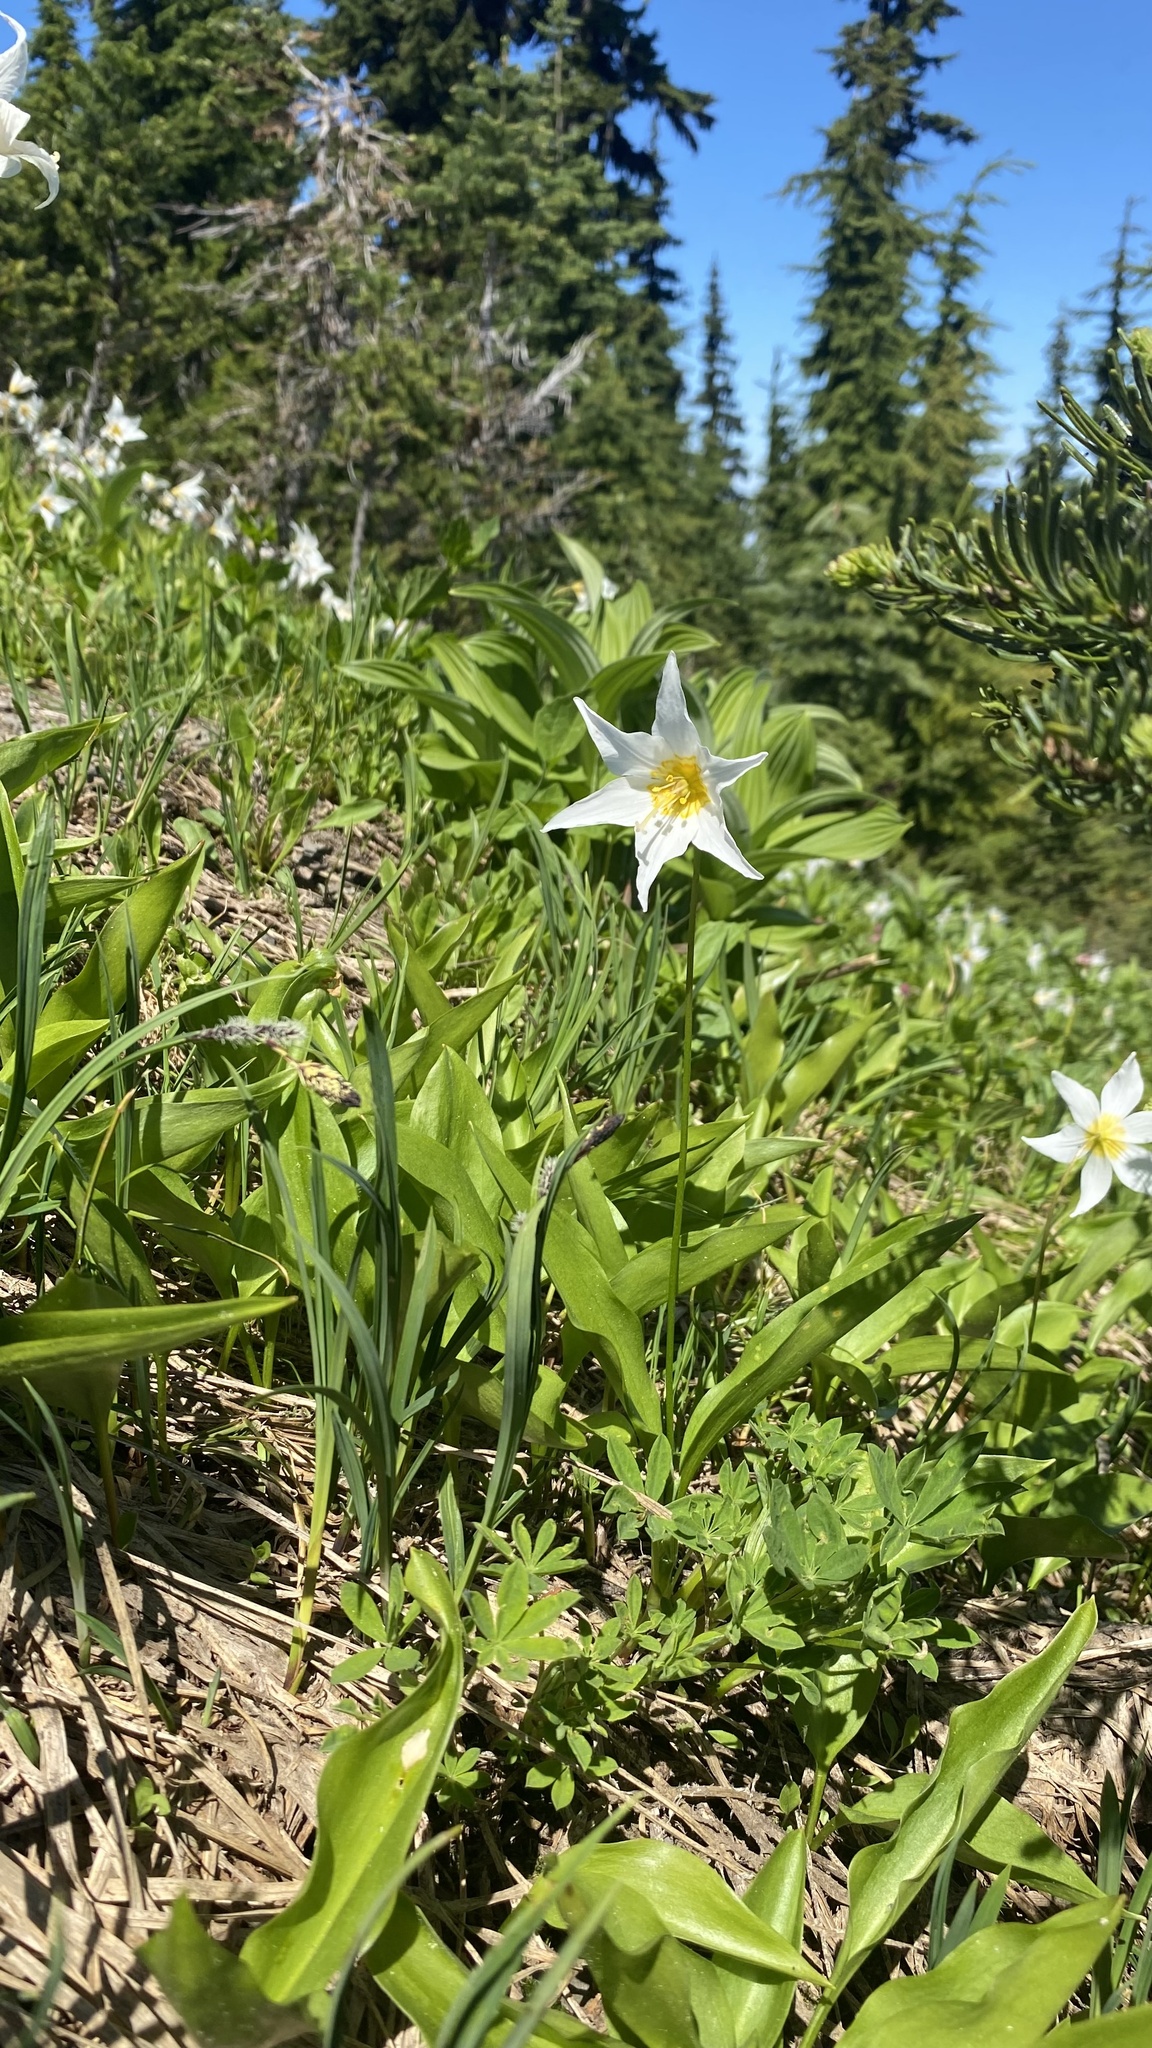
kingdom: Plantae
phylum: Tracheophyta
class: Liliopsida
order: Liliales
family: Liliaceae
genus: Erythronium
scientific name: Erythronium montanum
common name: Avalanche lily
